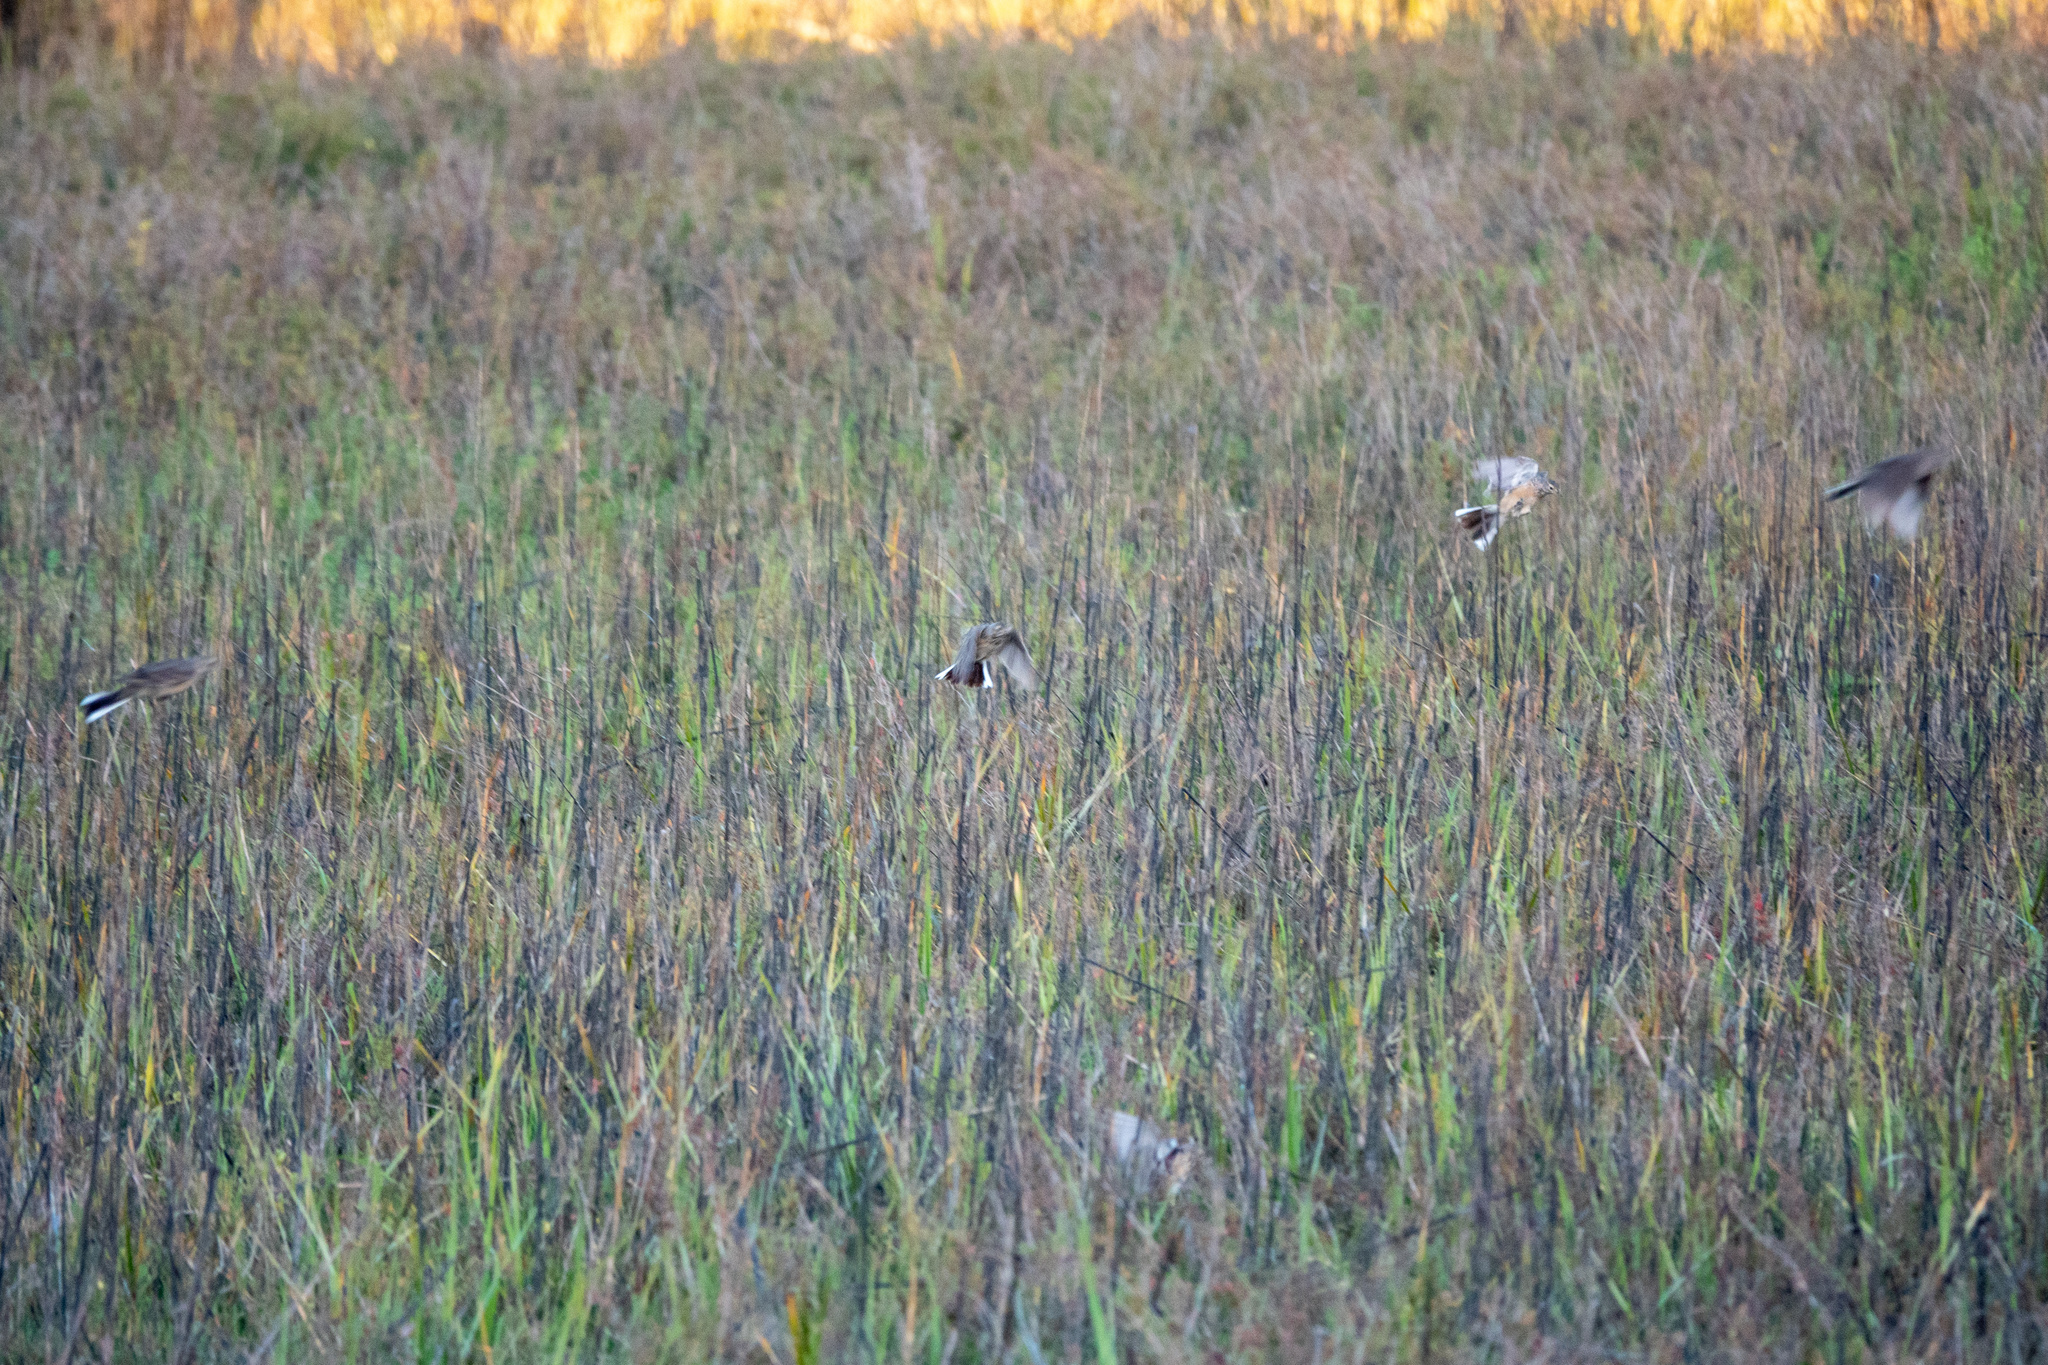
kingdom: Animalia
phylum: Chordata
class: Aves
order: Passeriformes
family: Motacillidae
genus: Anthus
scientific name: Anthus rubescens
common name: Buff-bellied pipit
